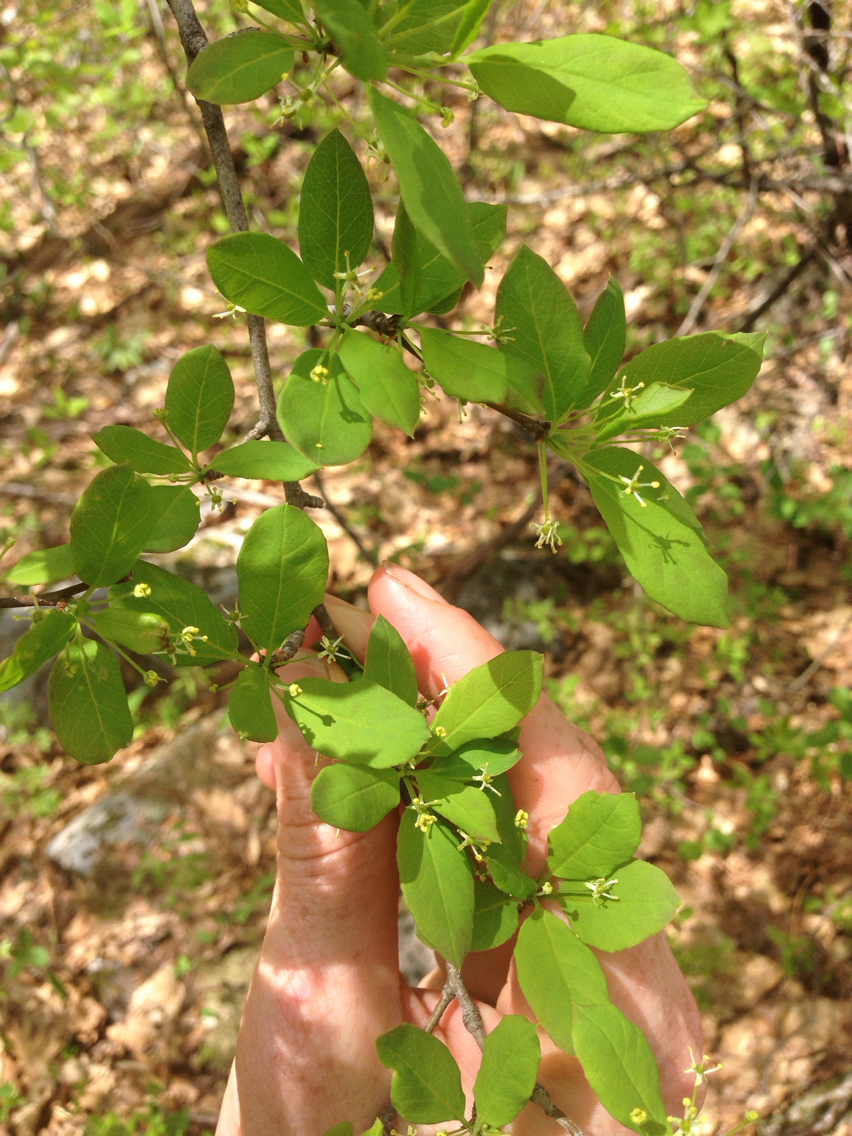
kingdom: Plantae
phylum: Tracheophyta
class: Magnoliopsida
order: Aquifoliales
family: Aquifoliaceae
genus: Ilex
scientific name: Ilex mucronata
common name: Catberry
